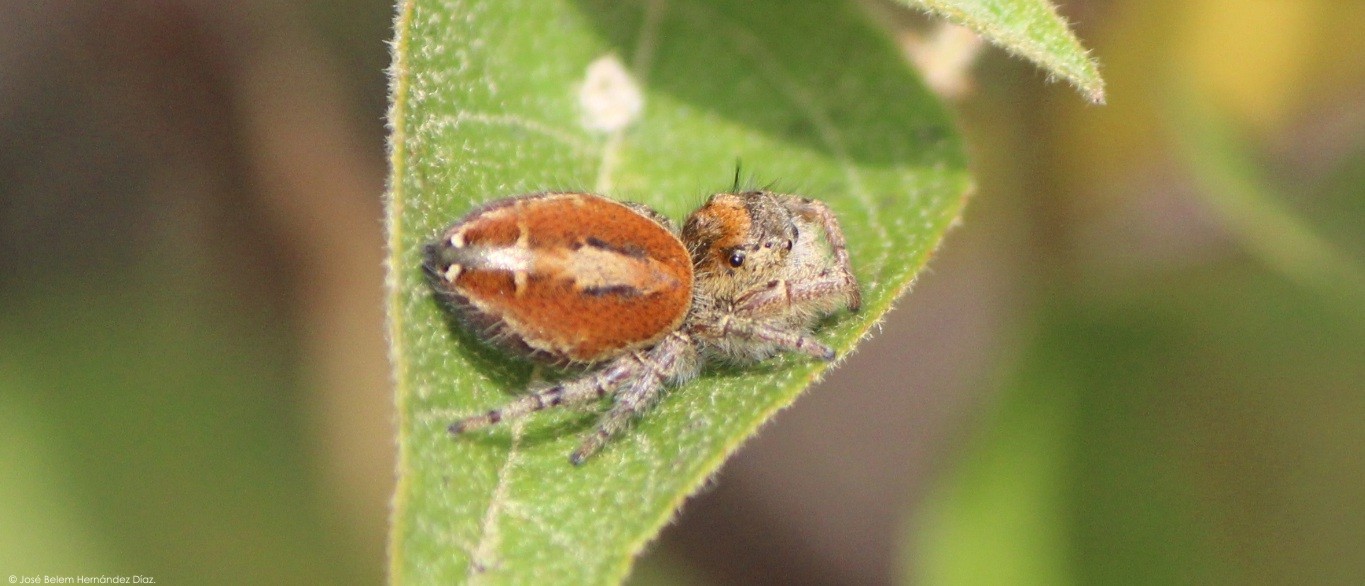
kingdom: Animalia
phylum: Arthropoda
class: Arachnida
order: Araneae
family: Salticidae
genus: Phidippus
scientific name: Phidippus arizonensis
